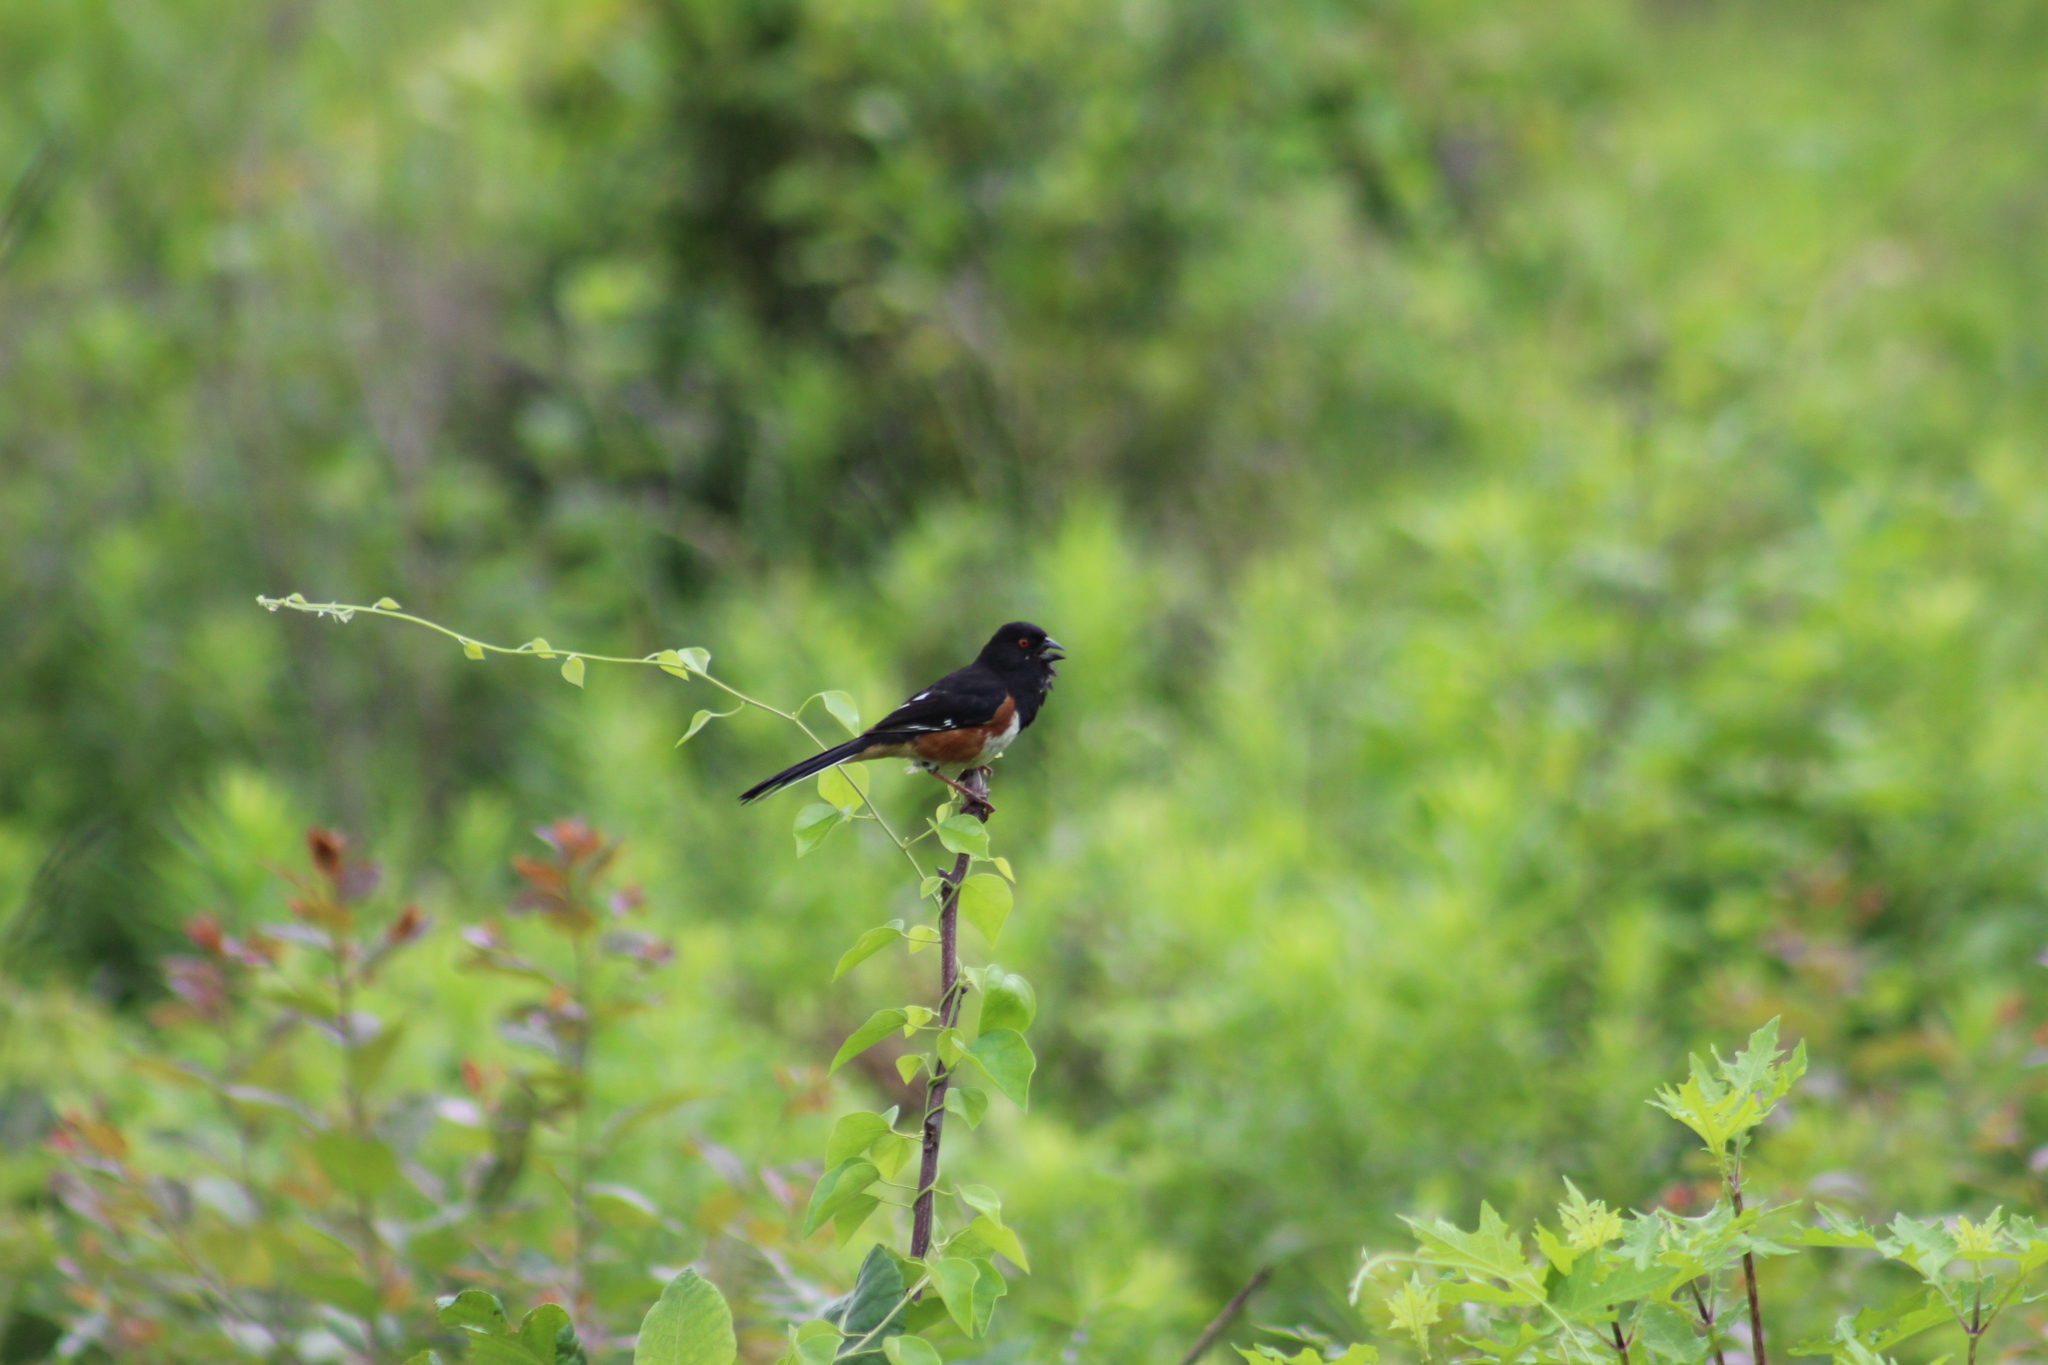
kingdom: Animalia
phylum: Chordata
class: Aves
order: Passeriformes
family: Passerellidae
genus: Pipilo
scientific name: Pipilo erythrophthalmus
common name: Eastern towhee
